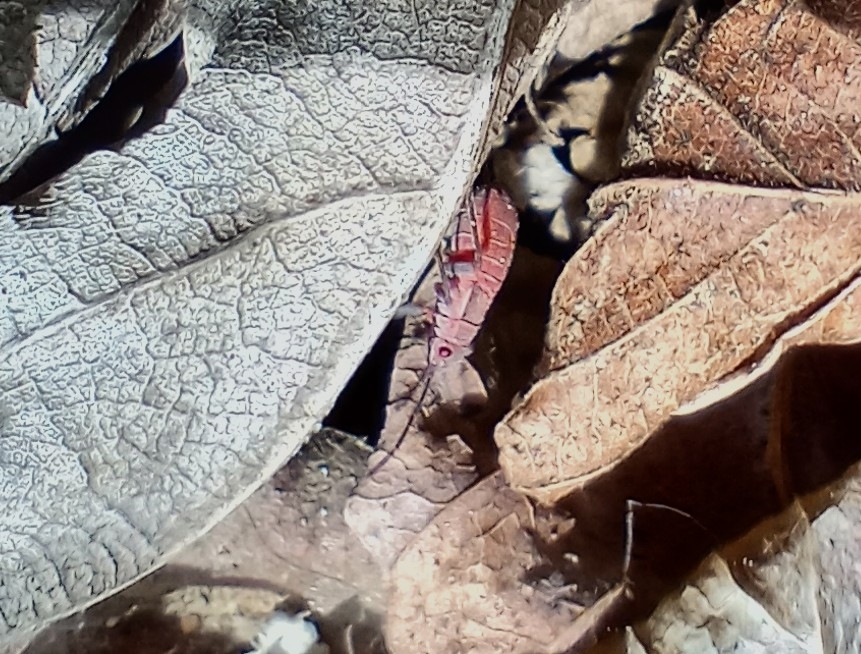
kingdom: Animalia
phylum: Arthropoda
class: Insecta
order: Hemiptera
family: Rhopalidae
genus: Boisea
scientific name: Boisea rubrolineata
